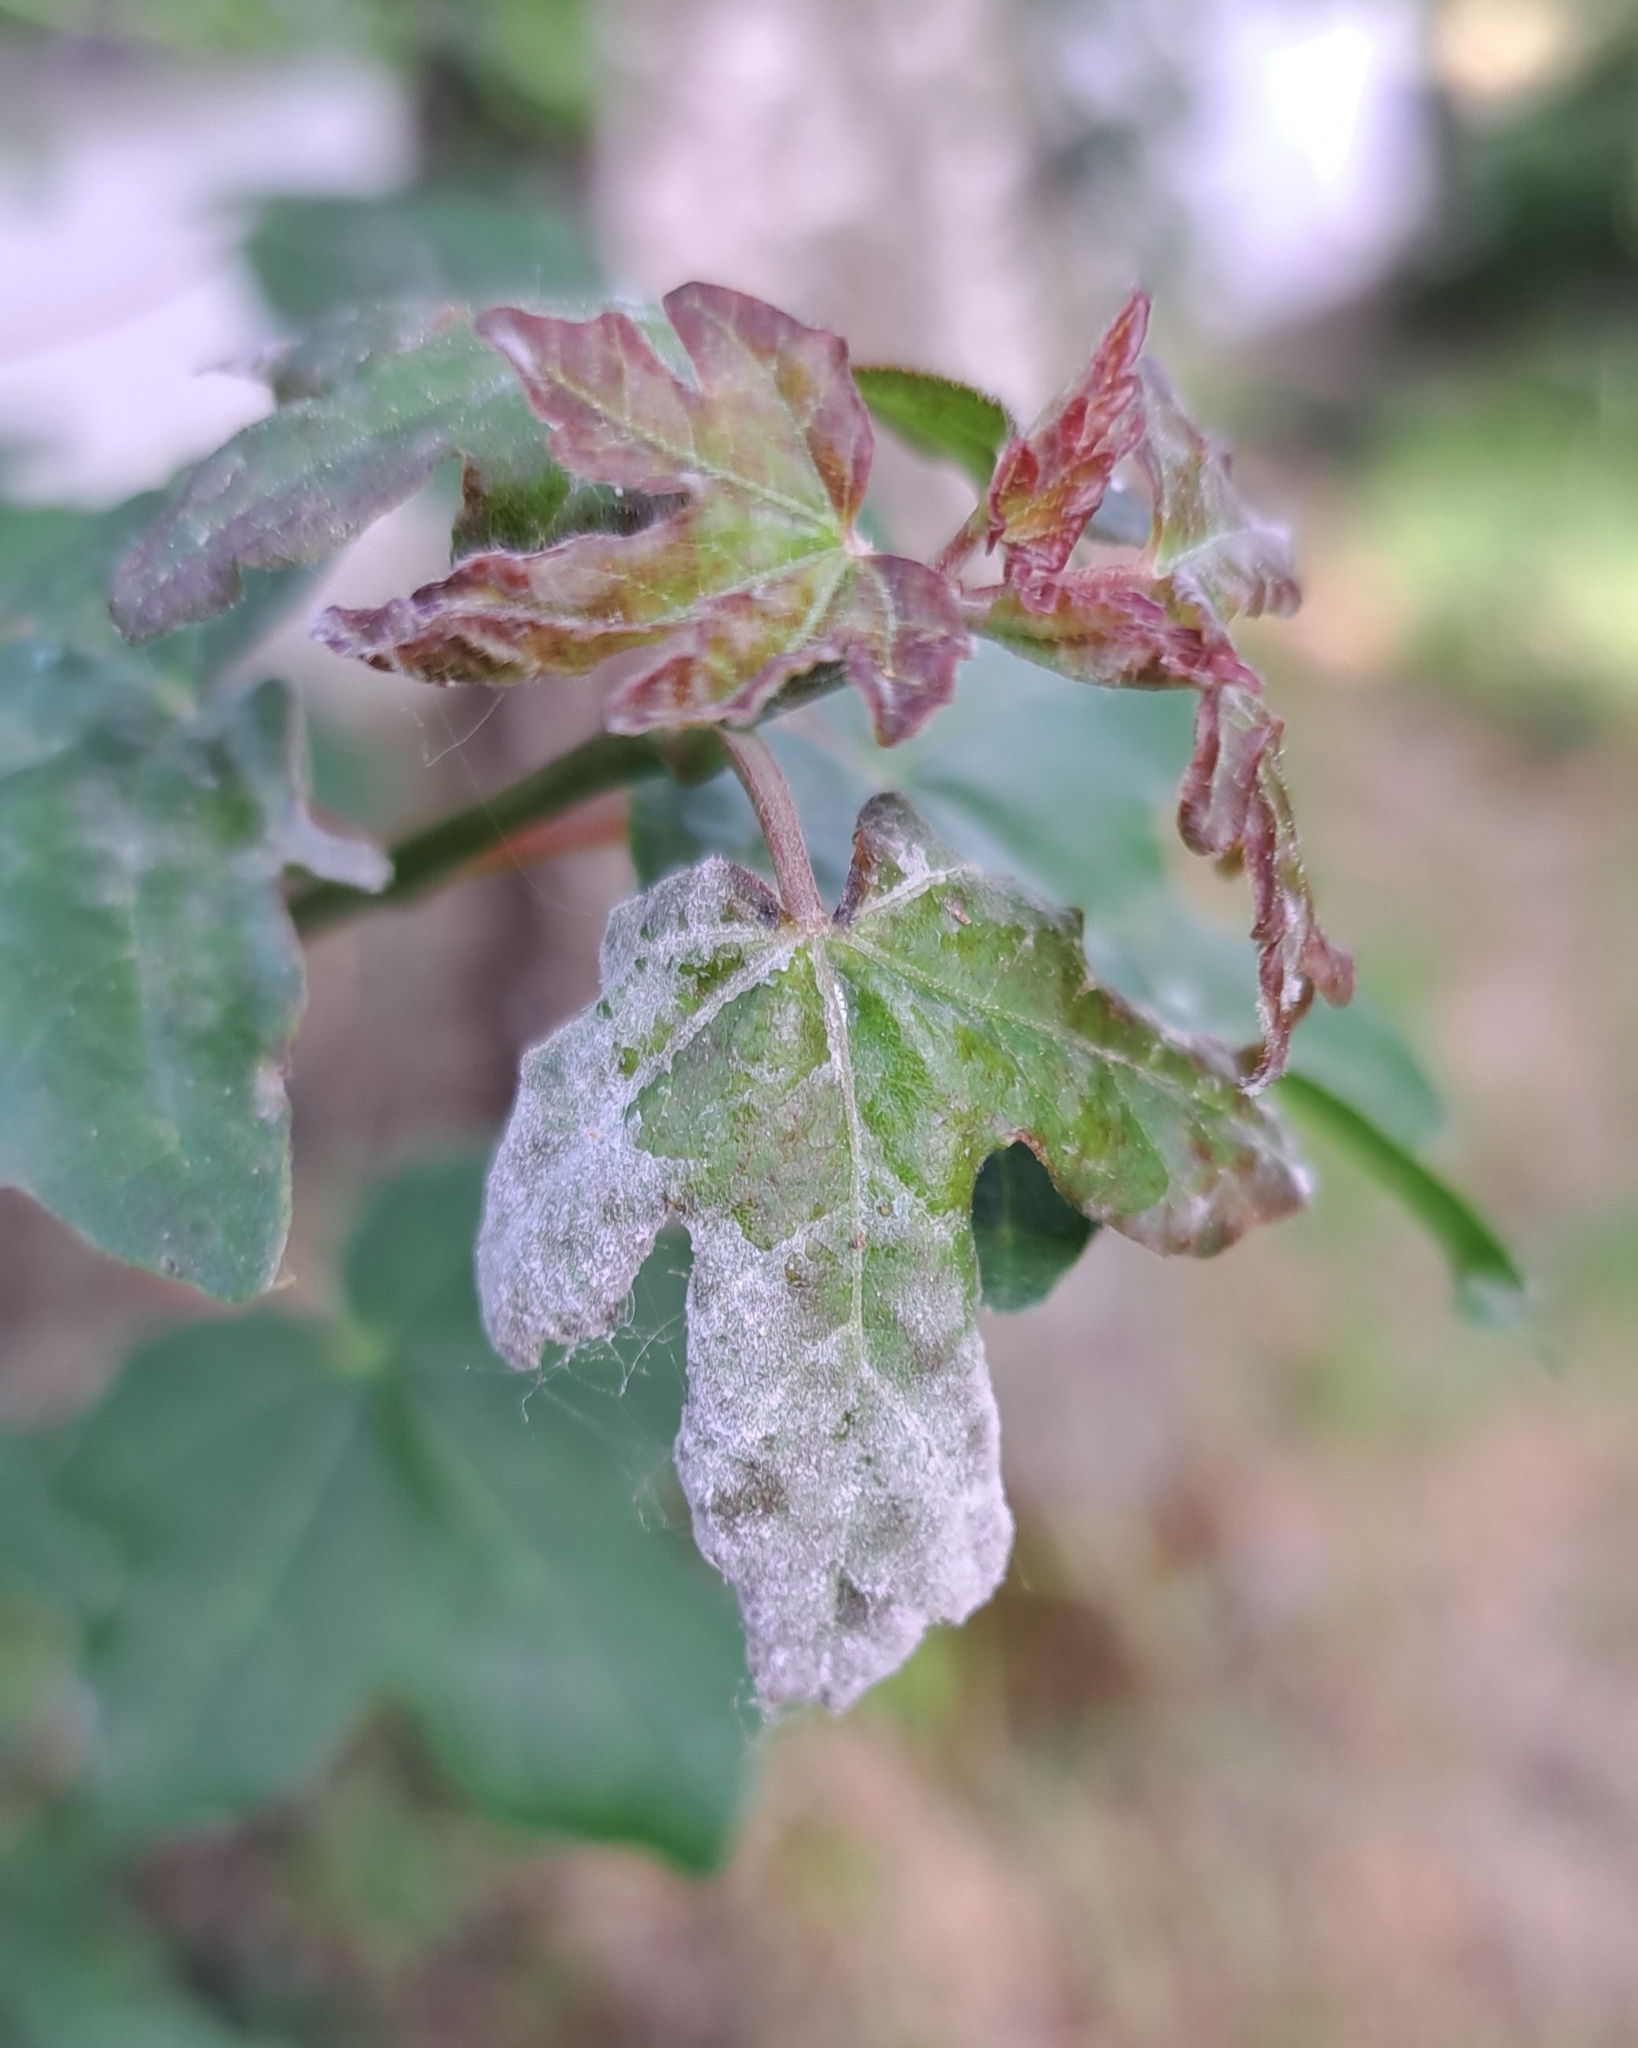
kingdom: Fungi
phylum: Ascomycota
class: Leotiomycetes
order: Helotiales
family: Erysiphaceae
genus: Sawadaea
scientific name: Sawadaea bicornis
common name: Maple mildew
